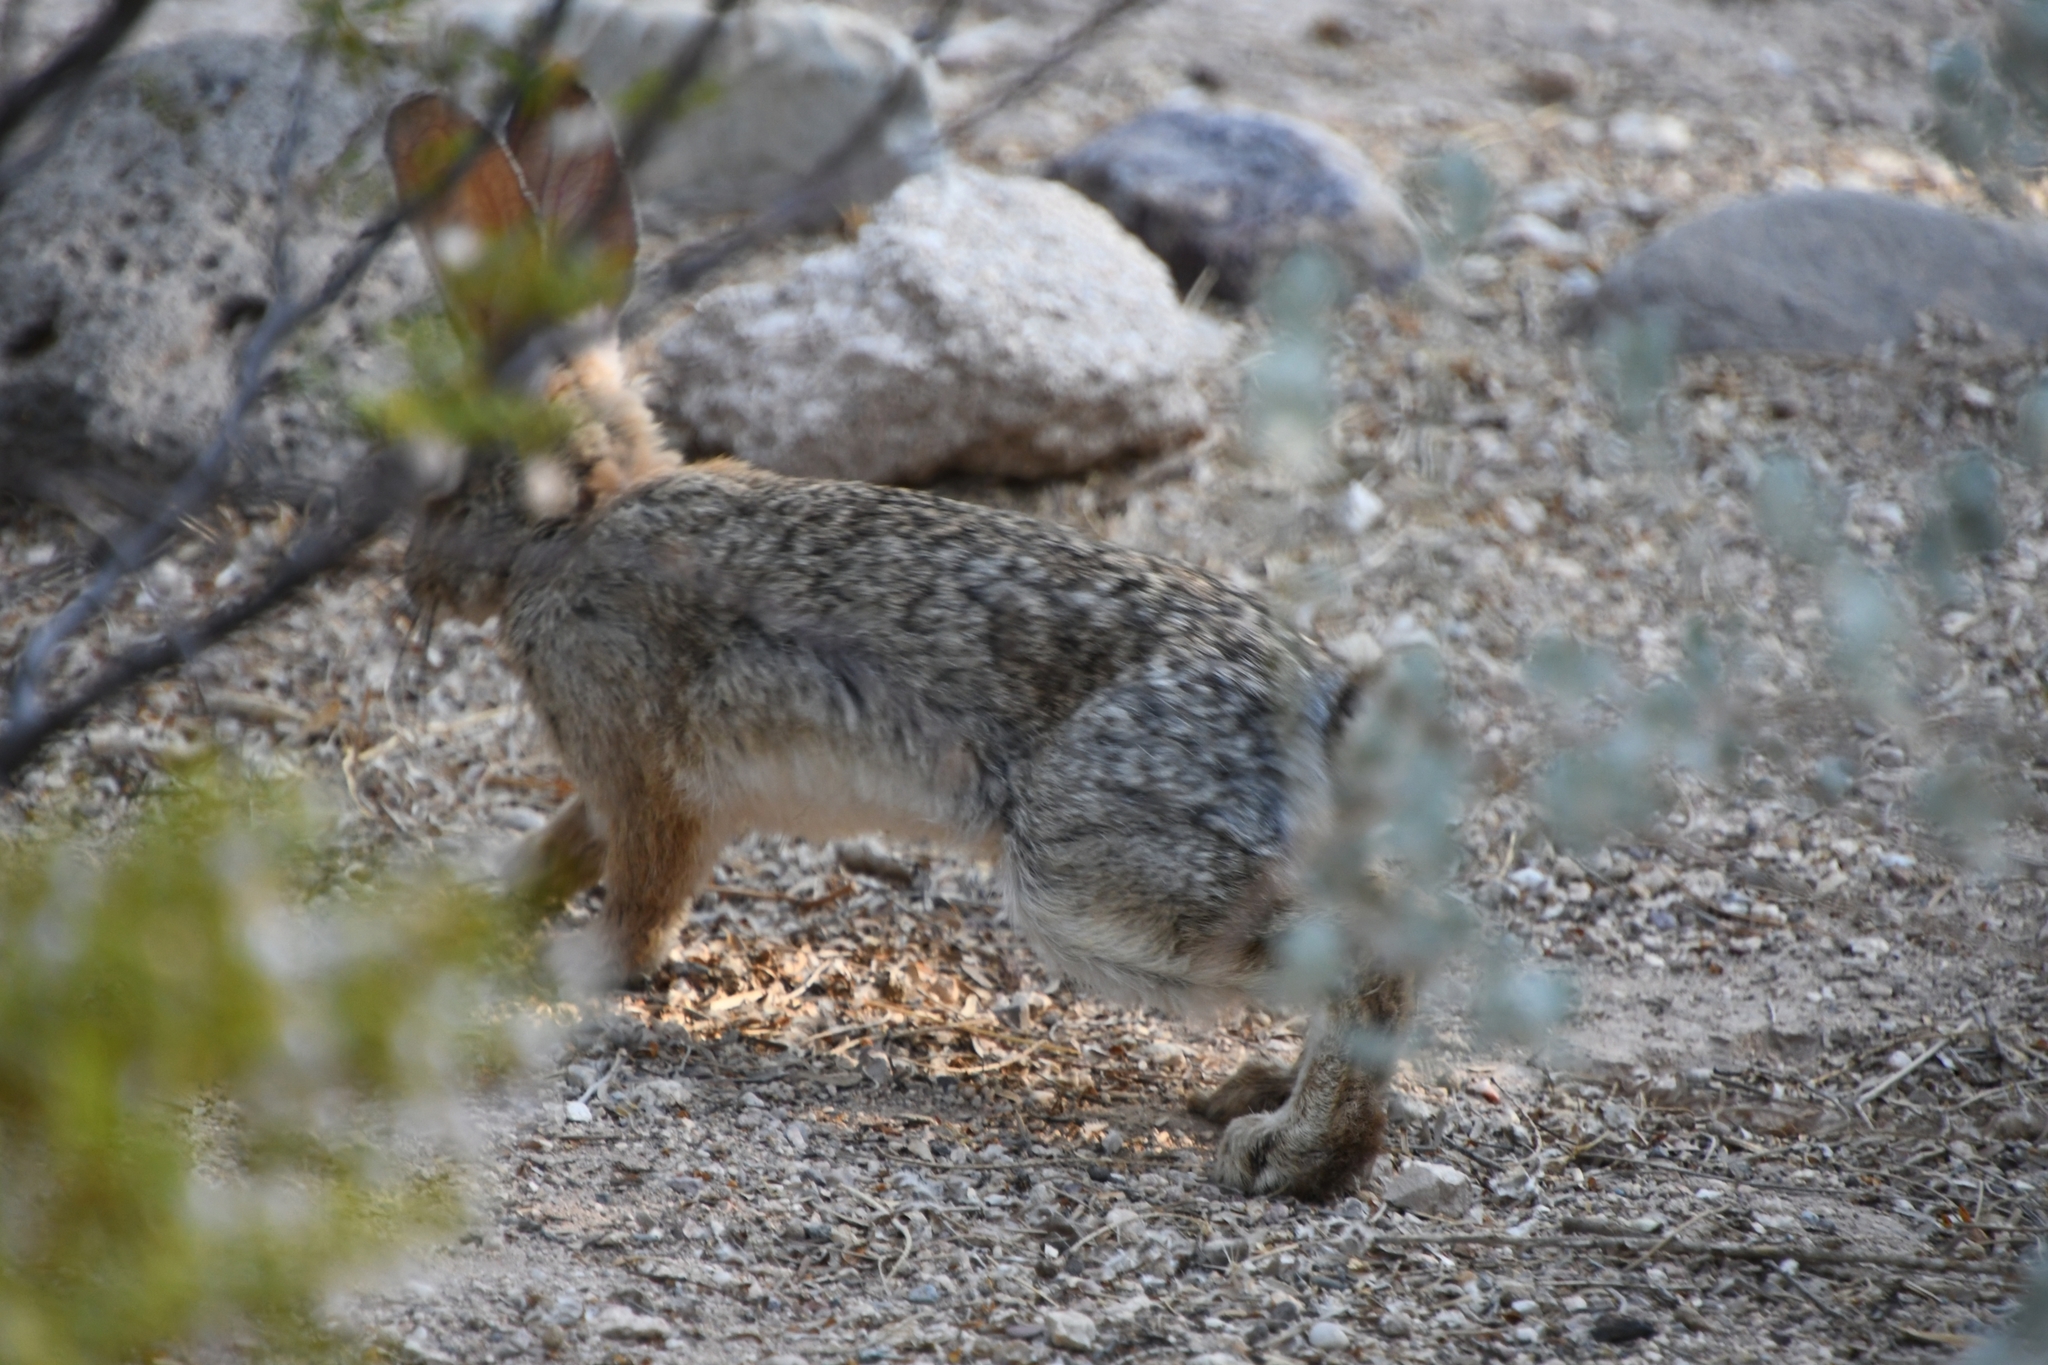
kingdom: Animalia
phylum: Chordata
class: Mammalia
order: Lagomorpha
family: Leporidae
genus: Sylvilagus
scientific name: Sylvilagus audubonii
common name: Desert cottontail
